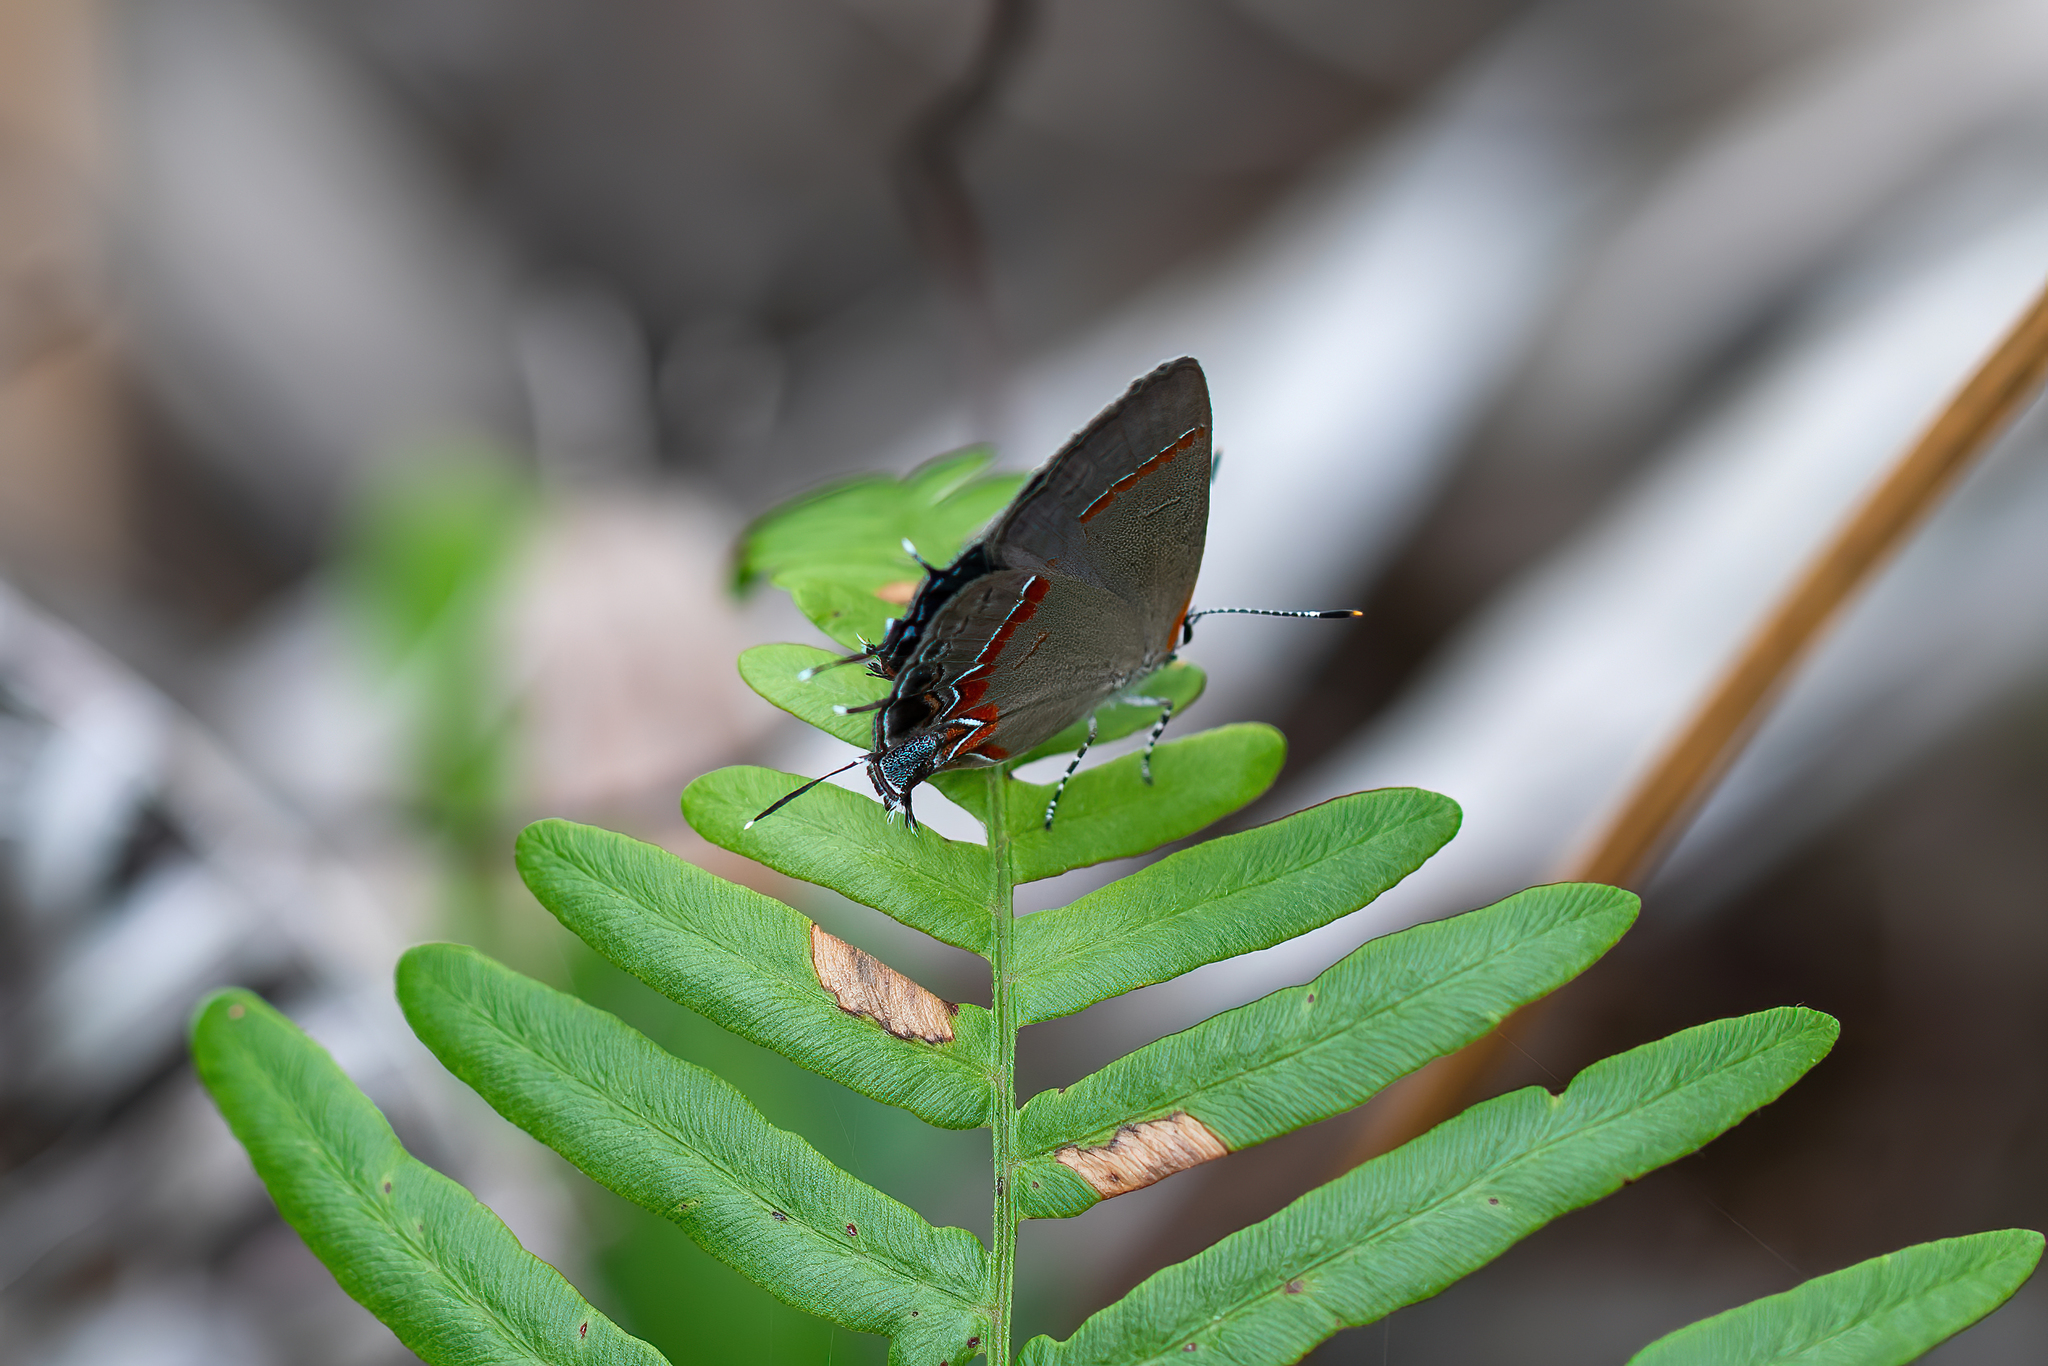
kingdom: Animalia
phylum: Arthropoda
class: Insecta
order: Lepidoptera
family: Lycaenidae
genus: Calycopis
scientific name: Calycopis cecrops
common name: Red-banded hairstreak
